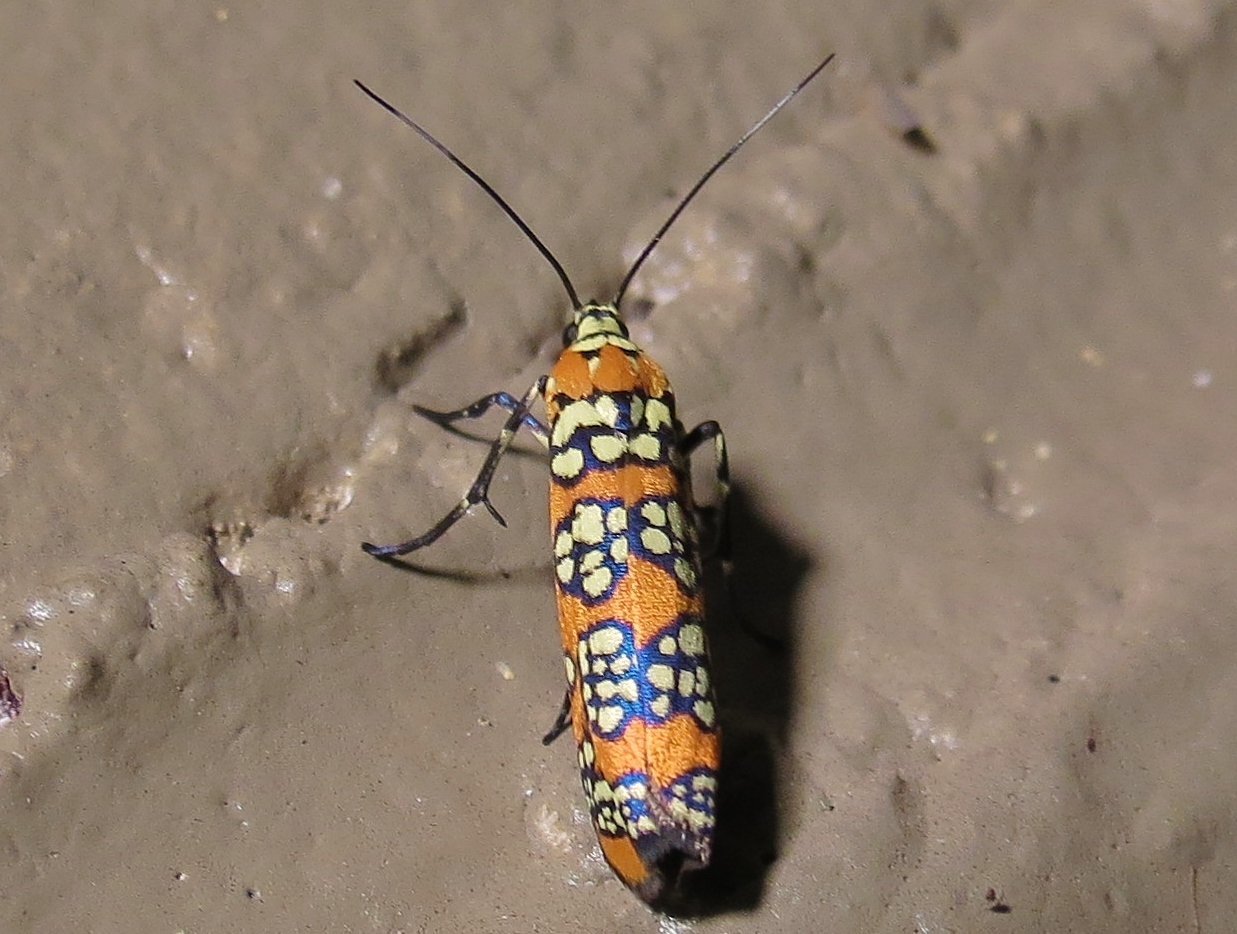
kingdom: Animalia
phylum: Arthropoda
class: Insecta
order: Lepidoptera
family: Attevidae
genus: Atteva
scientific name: Atteva punctella
